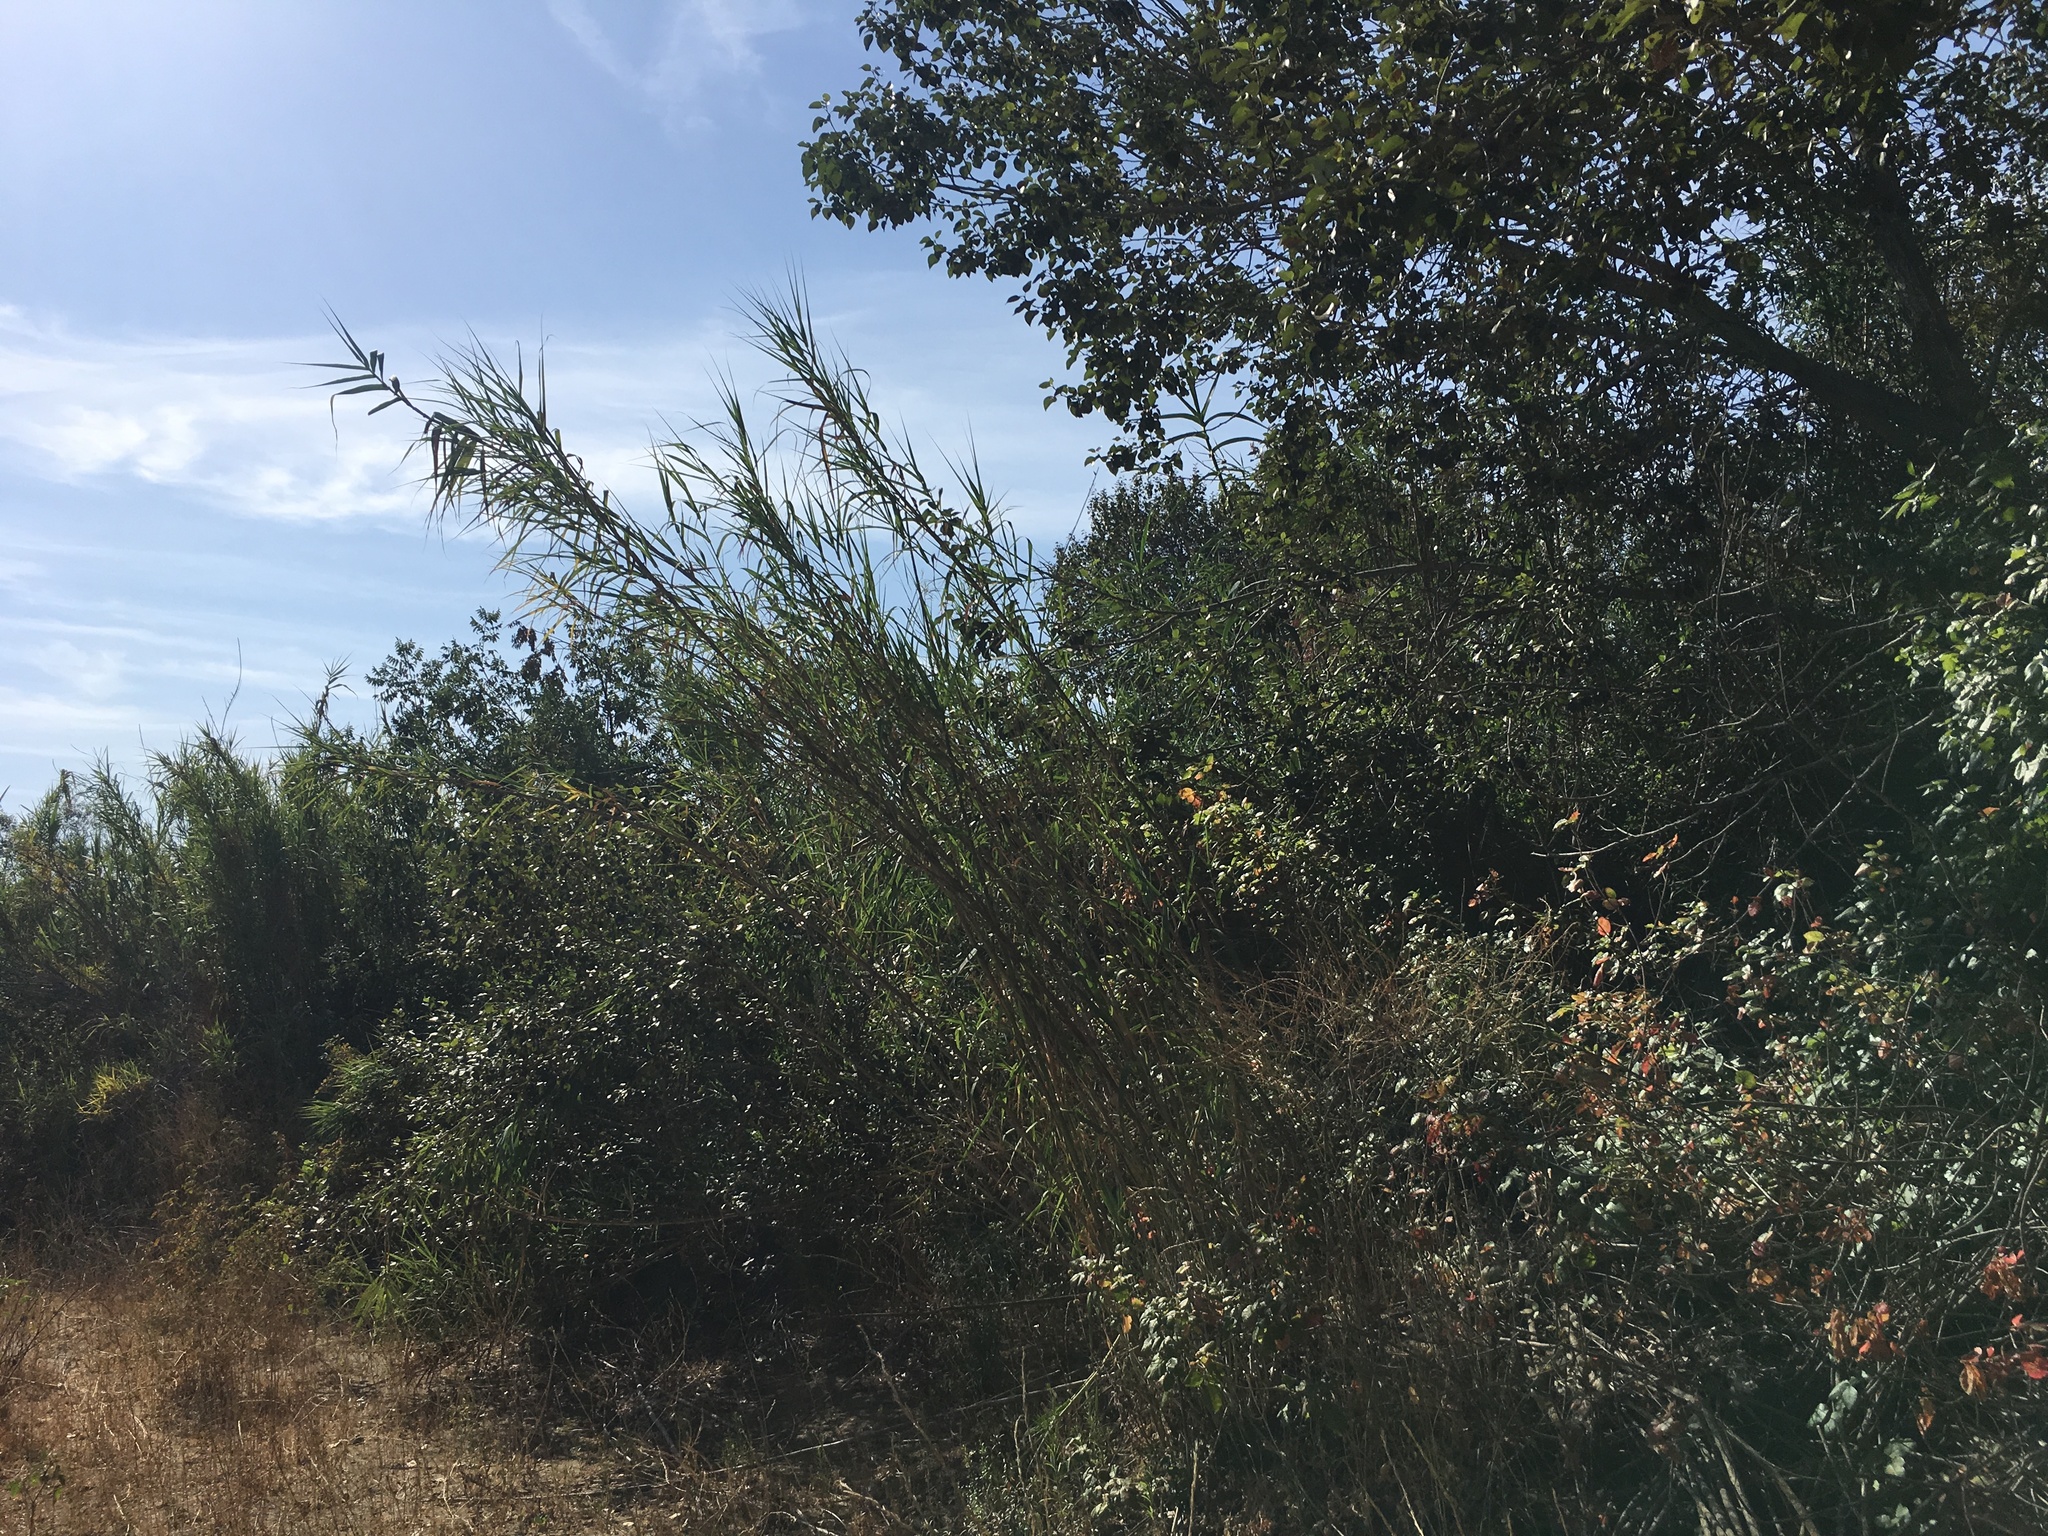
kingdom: Plantae
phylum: Tracheophyta
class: Magnoliopsida
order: Malpighiales
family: Salicaceae
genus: Populus
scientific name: Populus trichocarpa
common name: Black cottonwood
